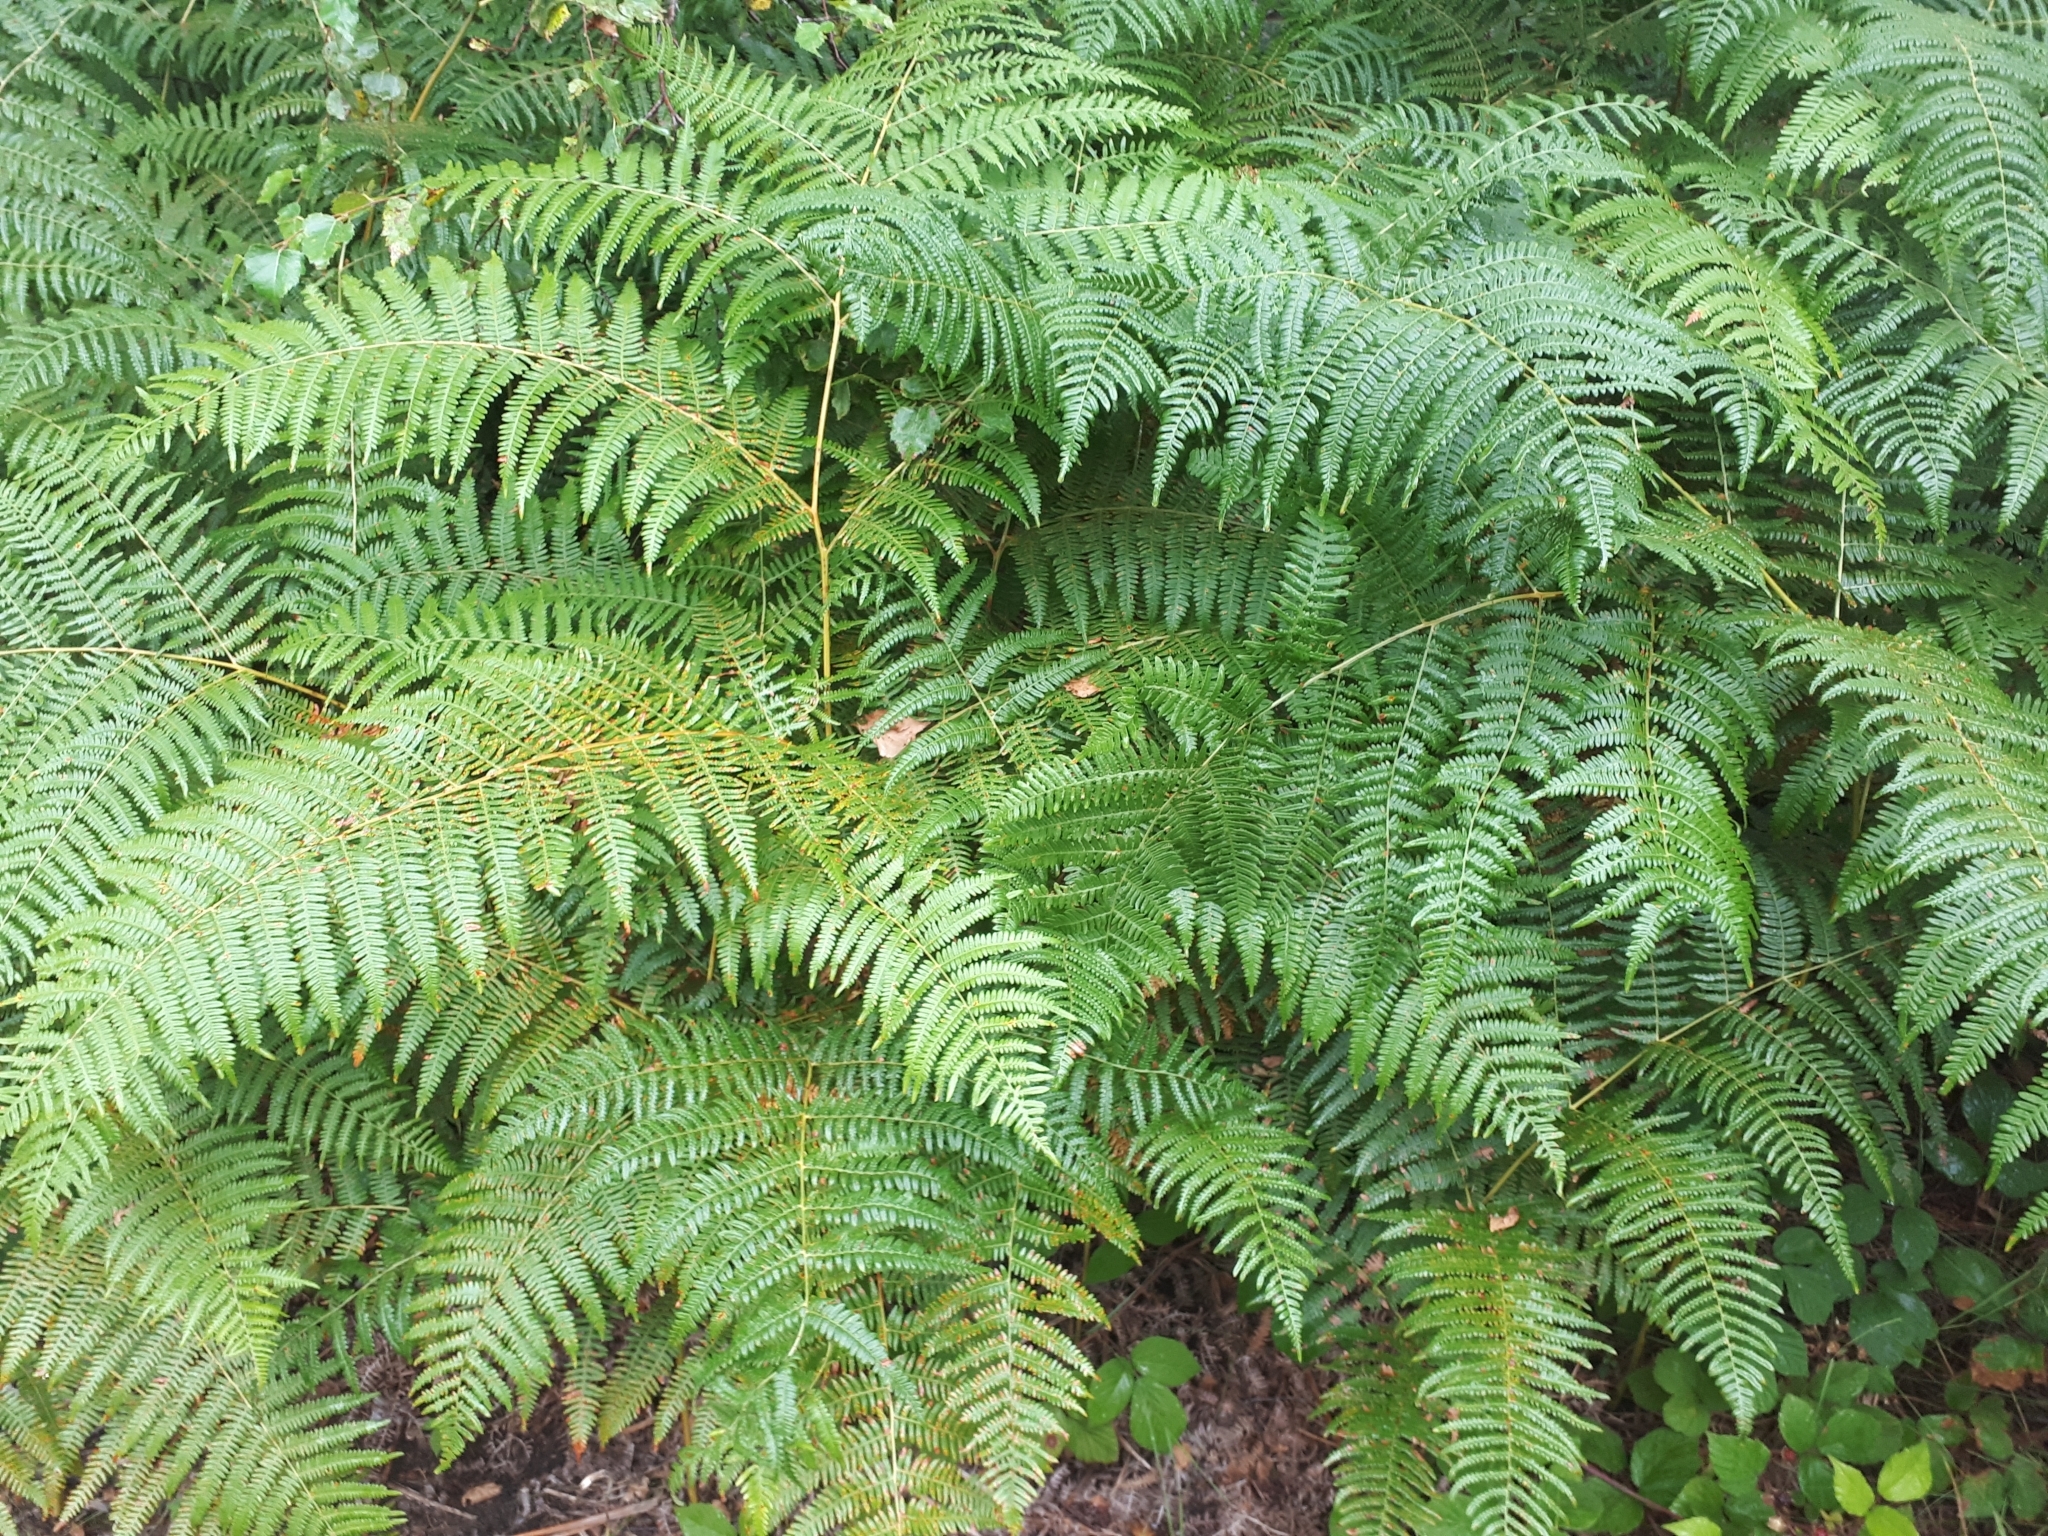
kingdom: Plantae
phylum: Tracheophyta
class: Polypodiopsida
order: Polypodiales
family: Dennstaedtiaceae
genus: Pteridium
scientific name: Pteridium aquilinum
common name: Bracken
